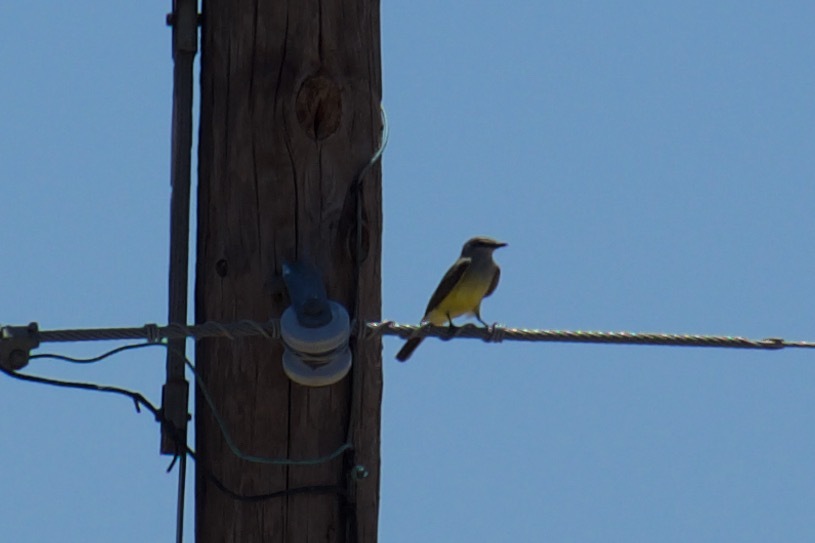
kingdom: Animalia
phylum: Chordata
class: Aves
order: Passeriformes
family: Tyrannidae
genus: Tyrannus
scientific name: Tyrannus verticalis
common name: Western kingbird
